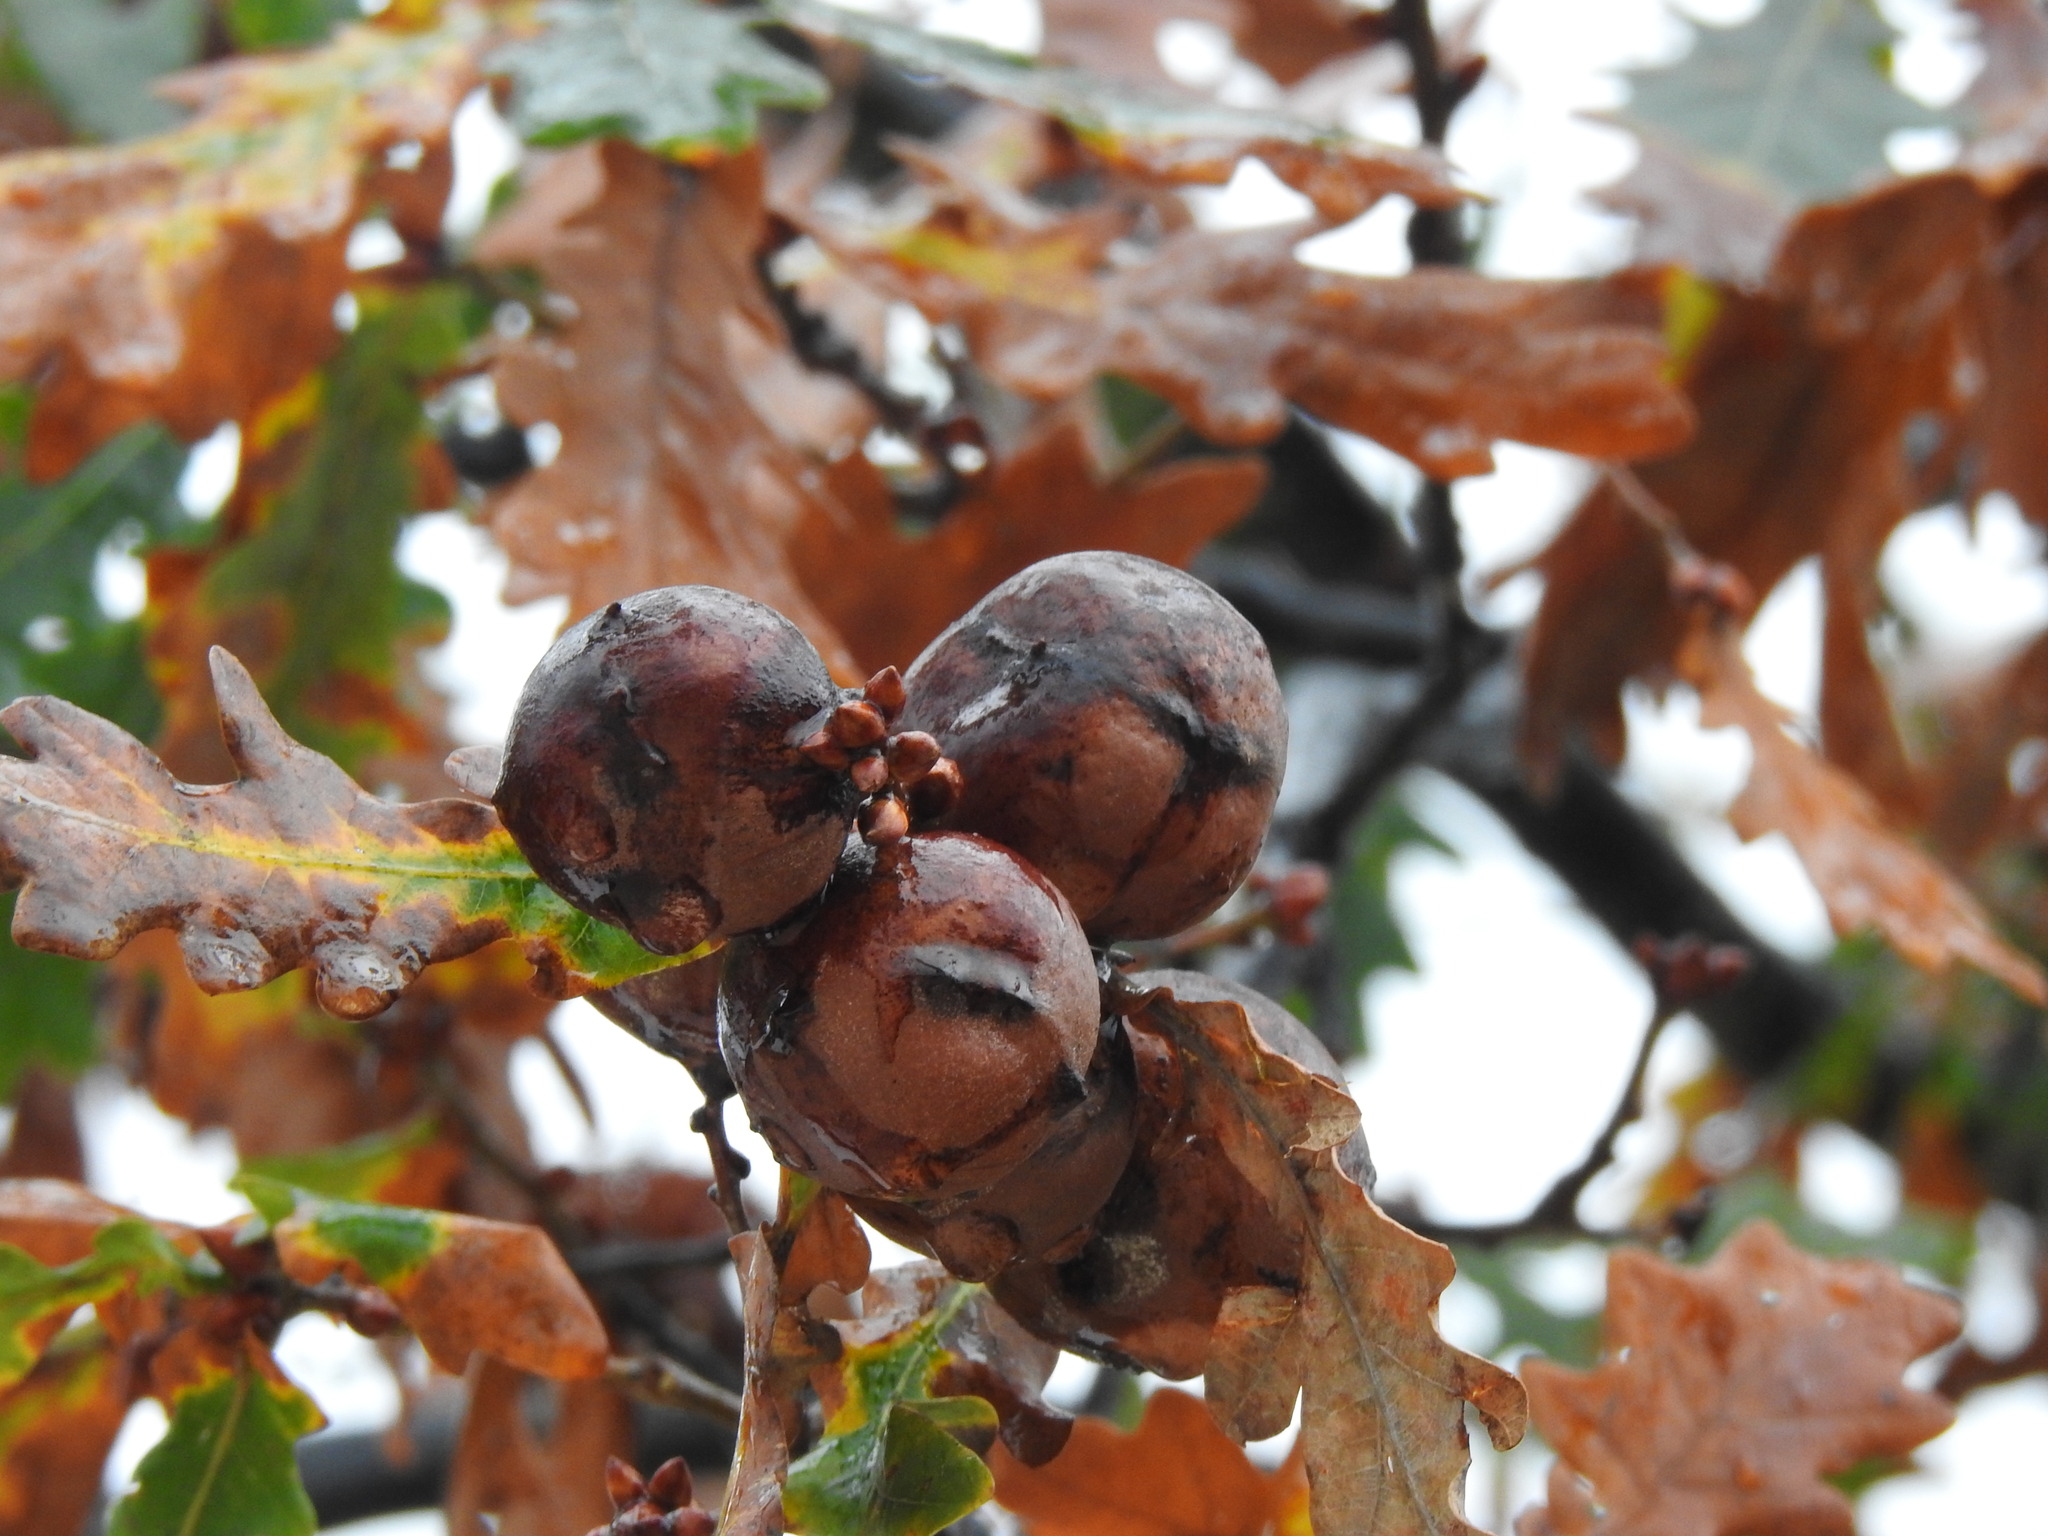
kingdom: Animalia
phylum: Arthropoda
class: Insecta
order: Hymenoptera
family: Cynipidae
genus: Andricus
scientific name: Andricus quercustozae
